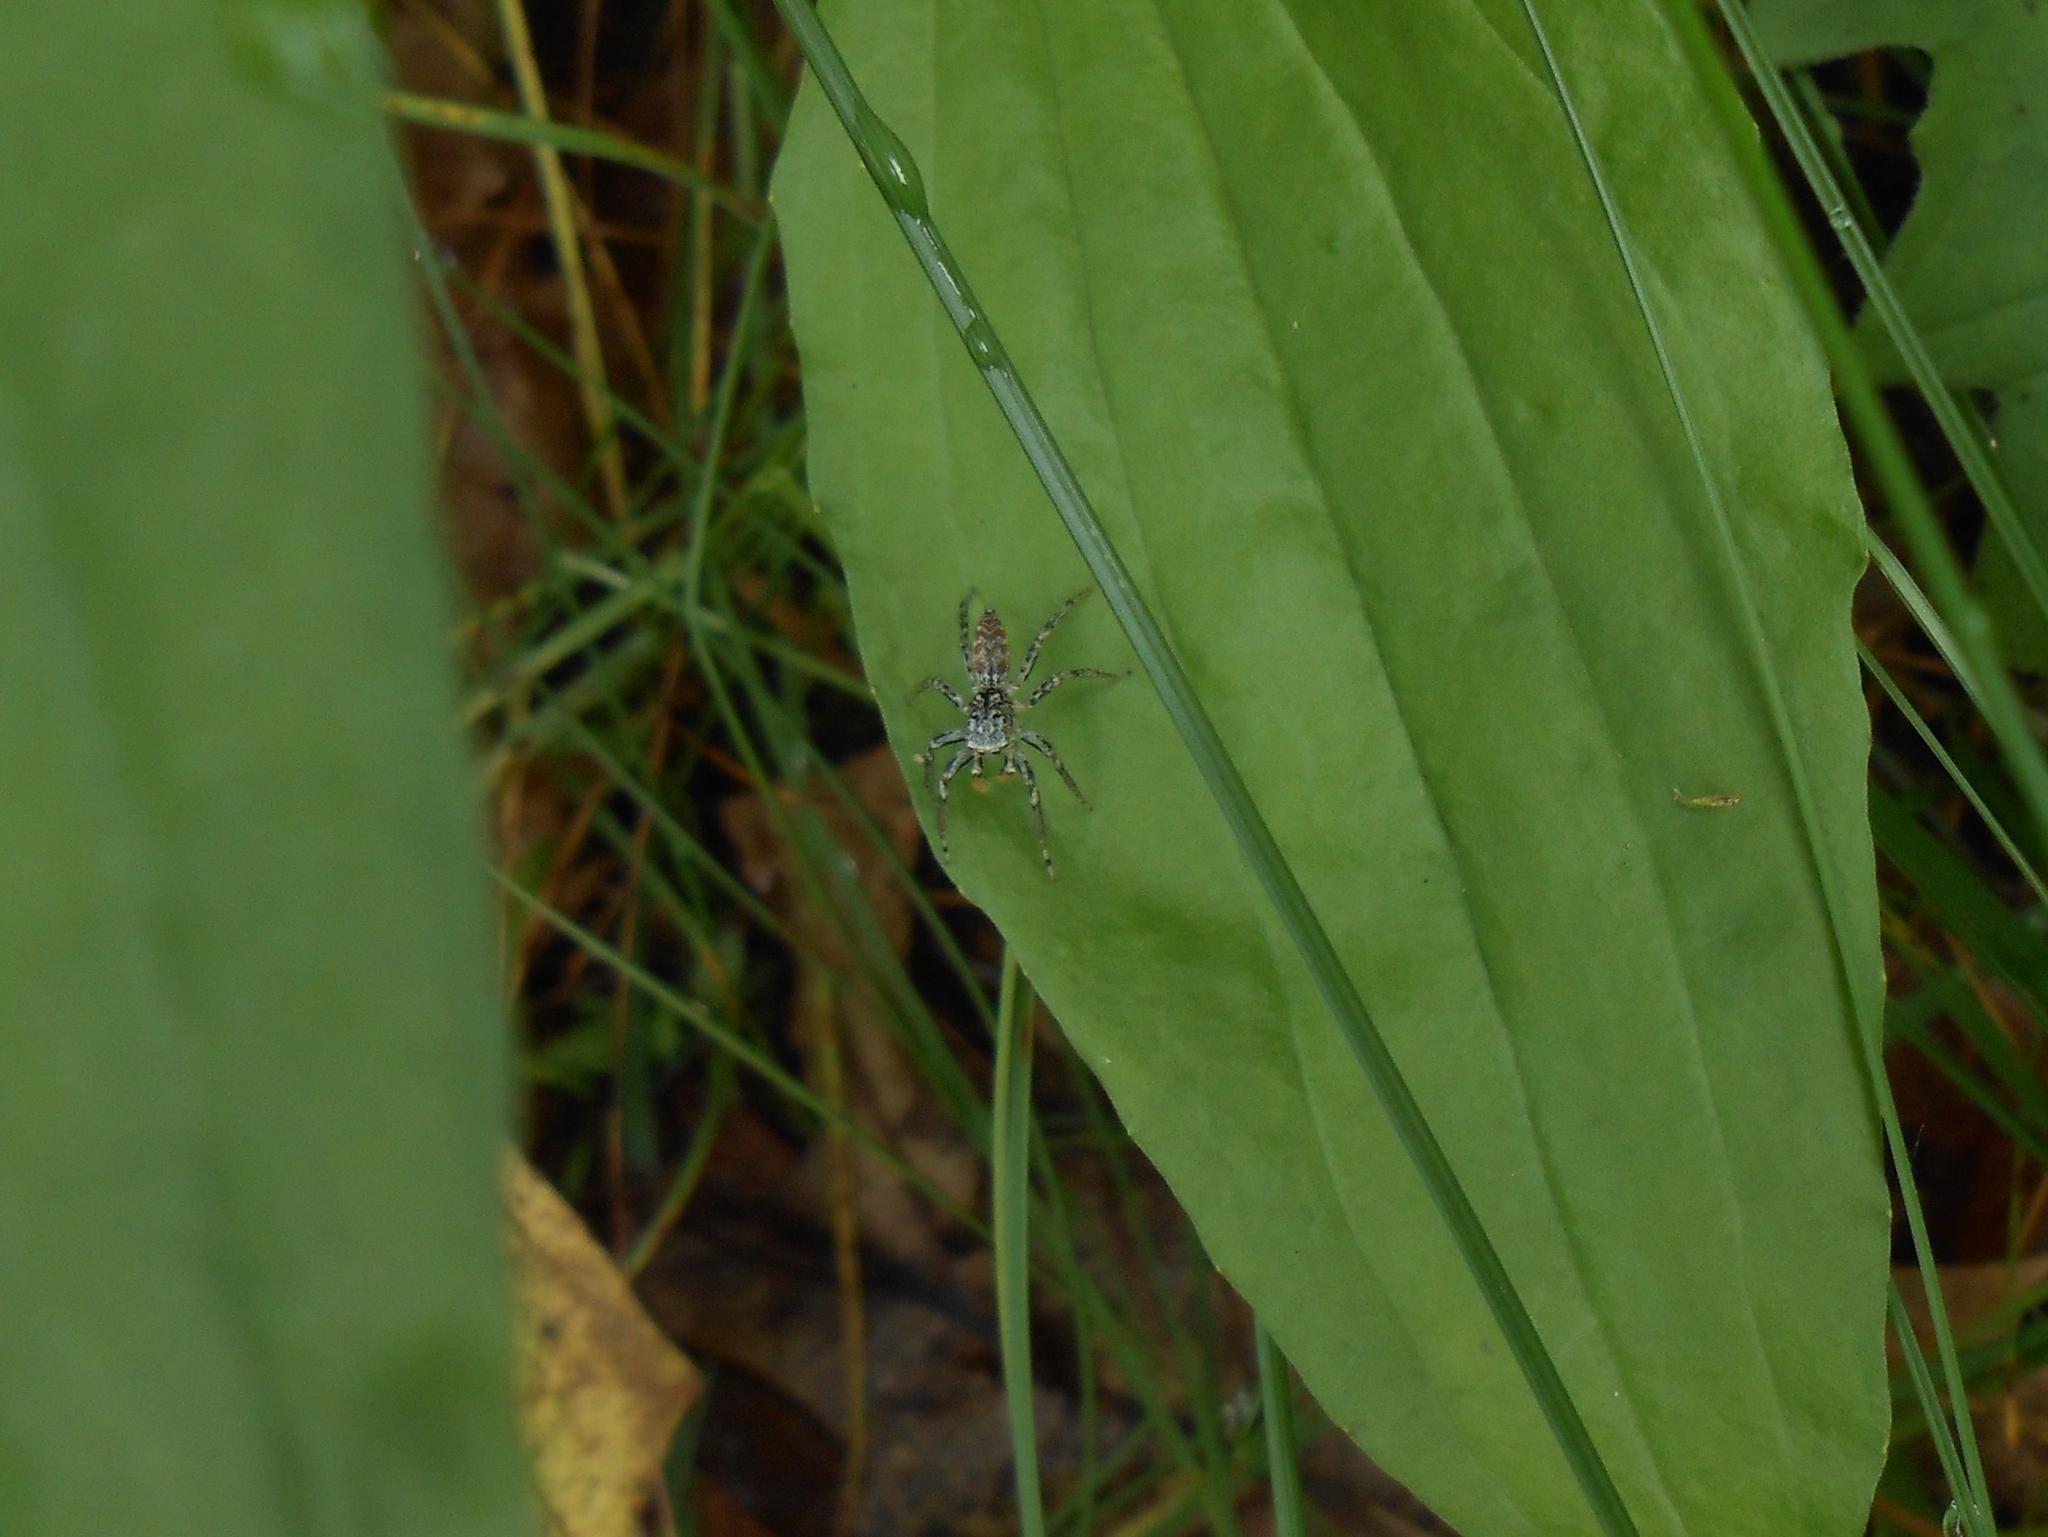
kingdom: Animalia
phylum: Arthropoda
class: Arachnida
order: Araneae
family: Salticidae
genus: Maevia
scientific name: Maevia inclemens
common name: Dimorphic jumper
